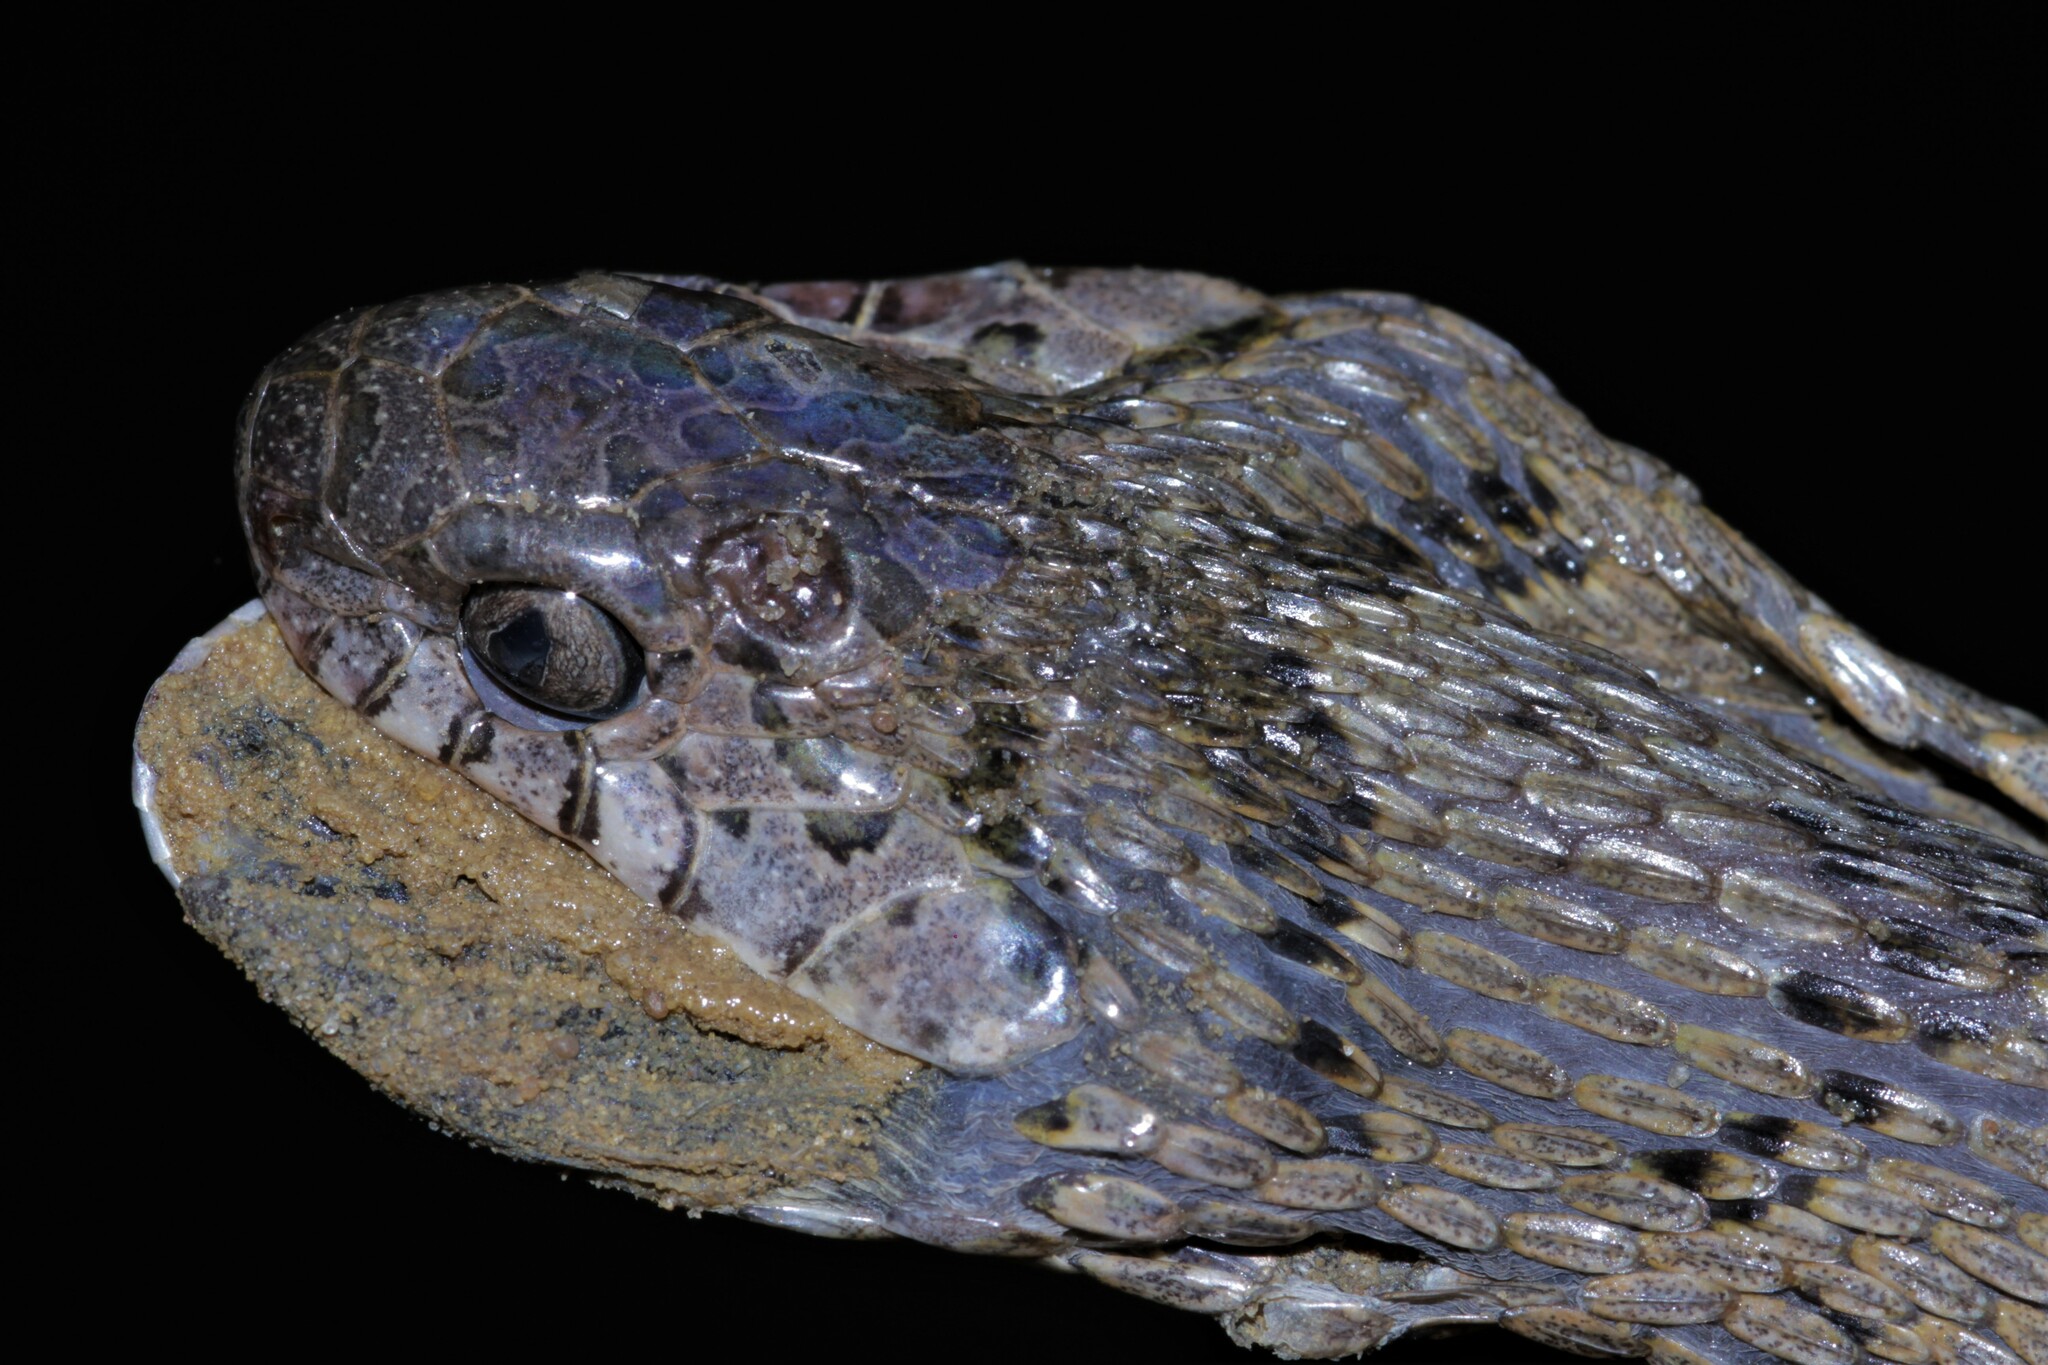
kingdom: Animalia
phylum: Chordata
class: Squamata
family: Colubridae
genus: Dasypeltis
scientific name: Dasypeltis palmarum
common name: Palm egg eater
